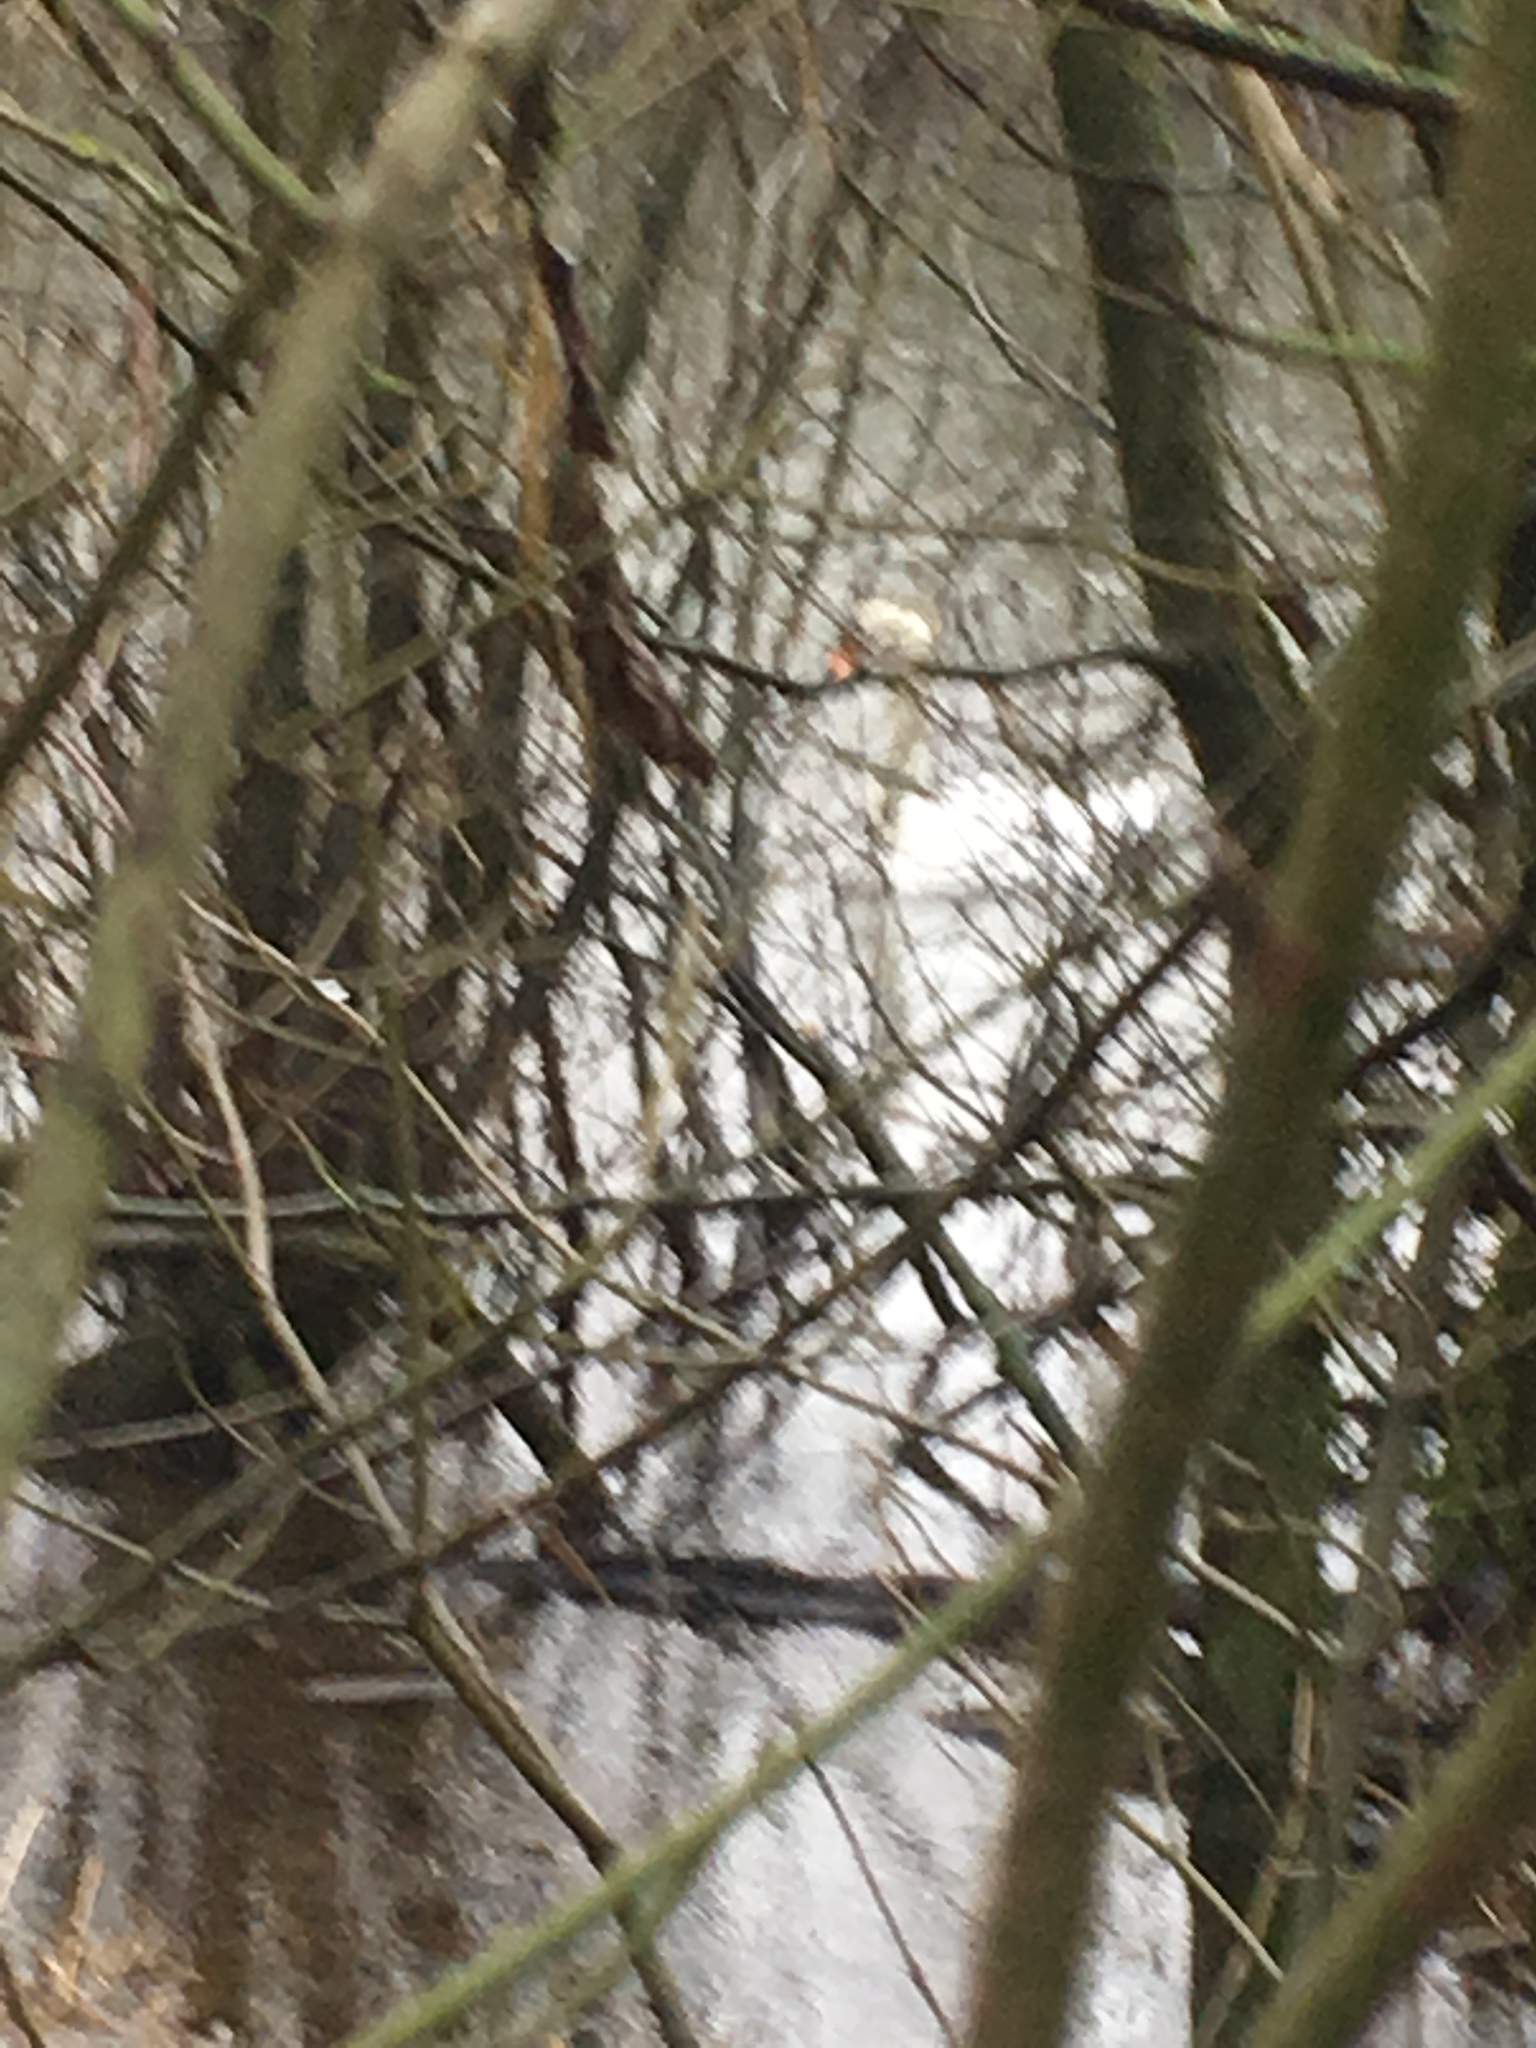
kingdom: Animalia
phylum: Chordata
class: Aves
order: Anseriformes
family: Anatidae
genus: Cygnus
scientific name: Cygnus olor
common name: Mute swan
